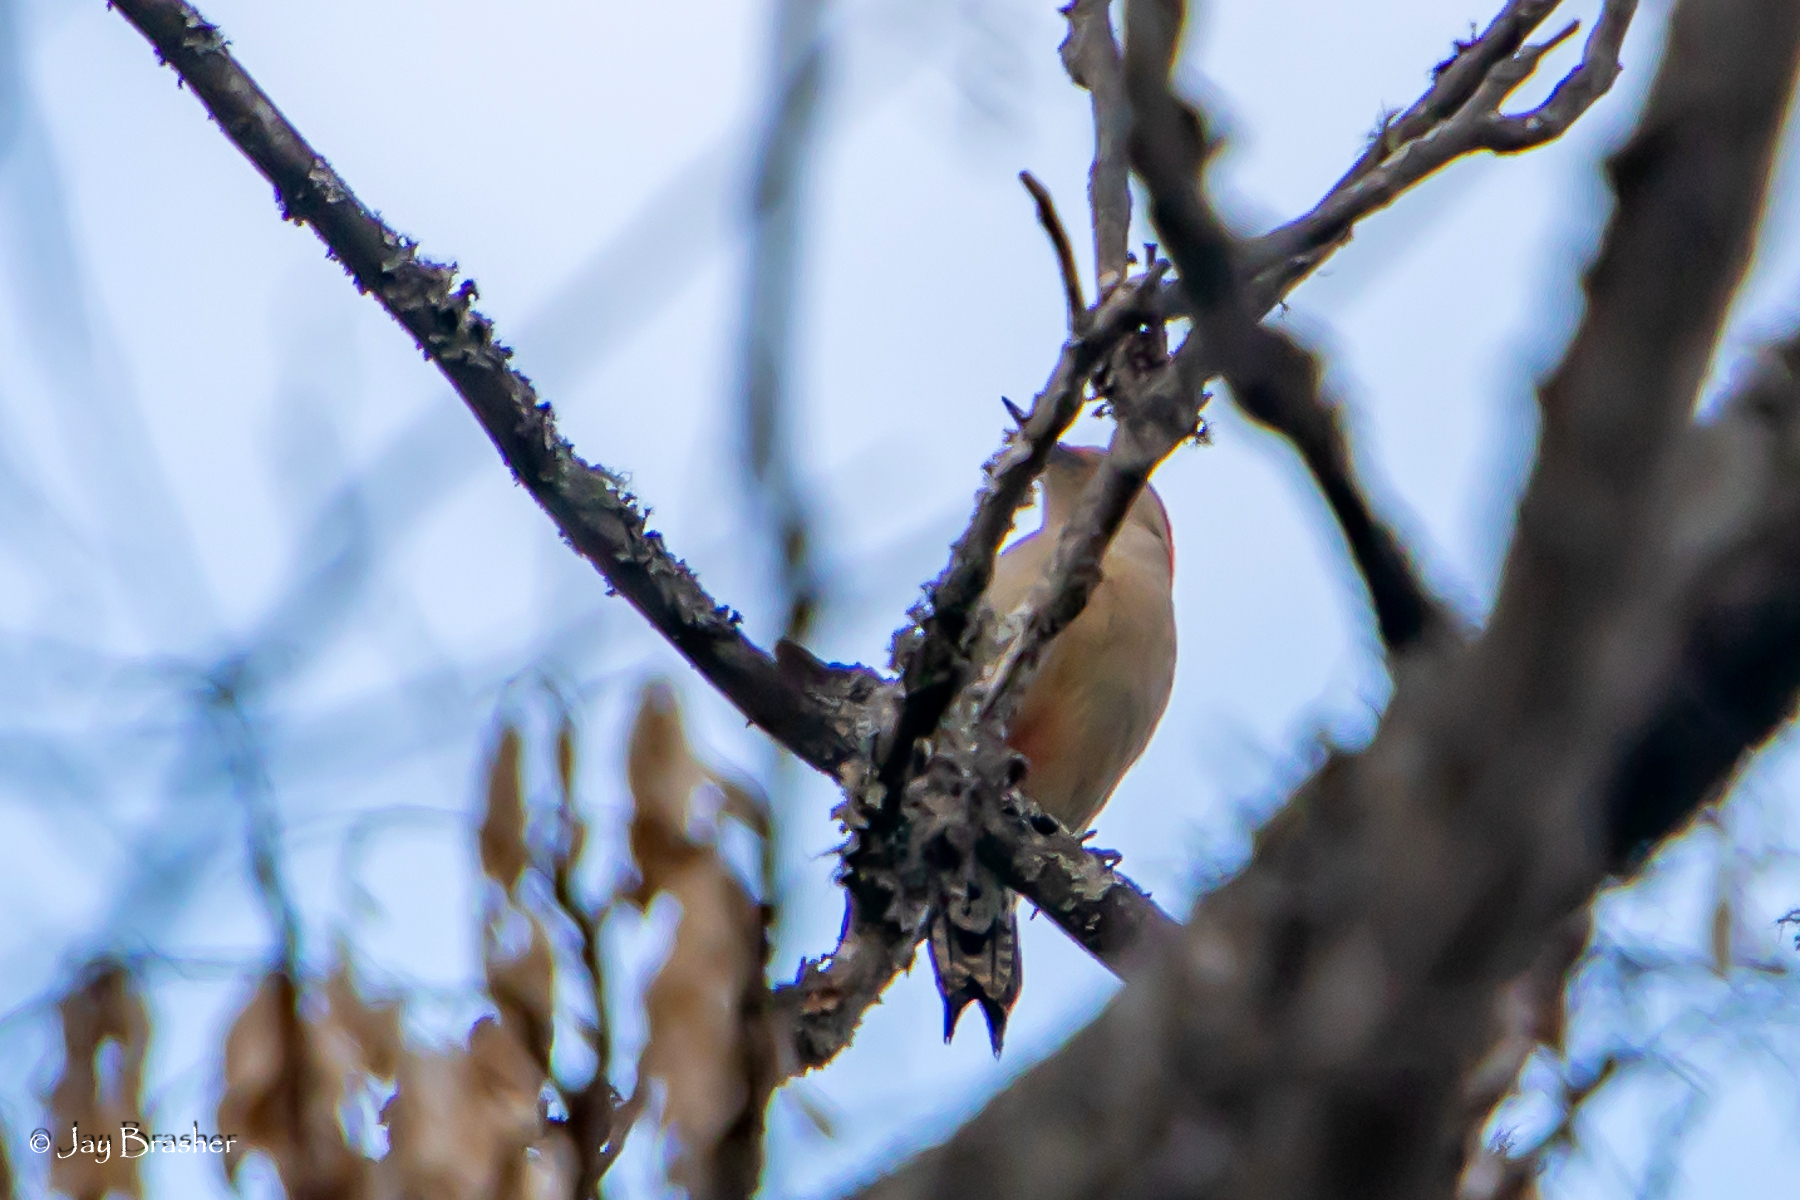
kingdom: Animalia
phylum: Chordata
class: Aves
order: Piciformes
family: Picidae
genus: Melanerpes
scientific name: Melanerpes carolinus
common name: Red-bellied woodpecker
